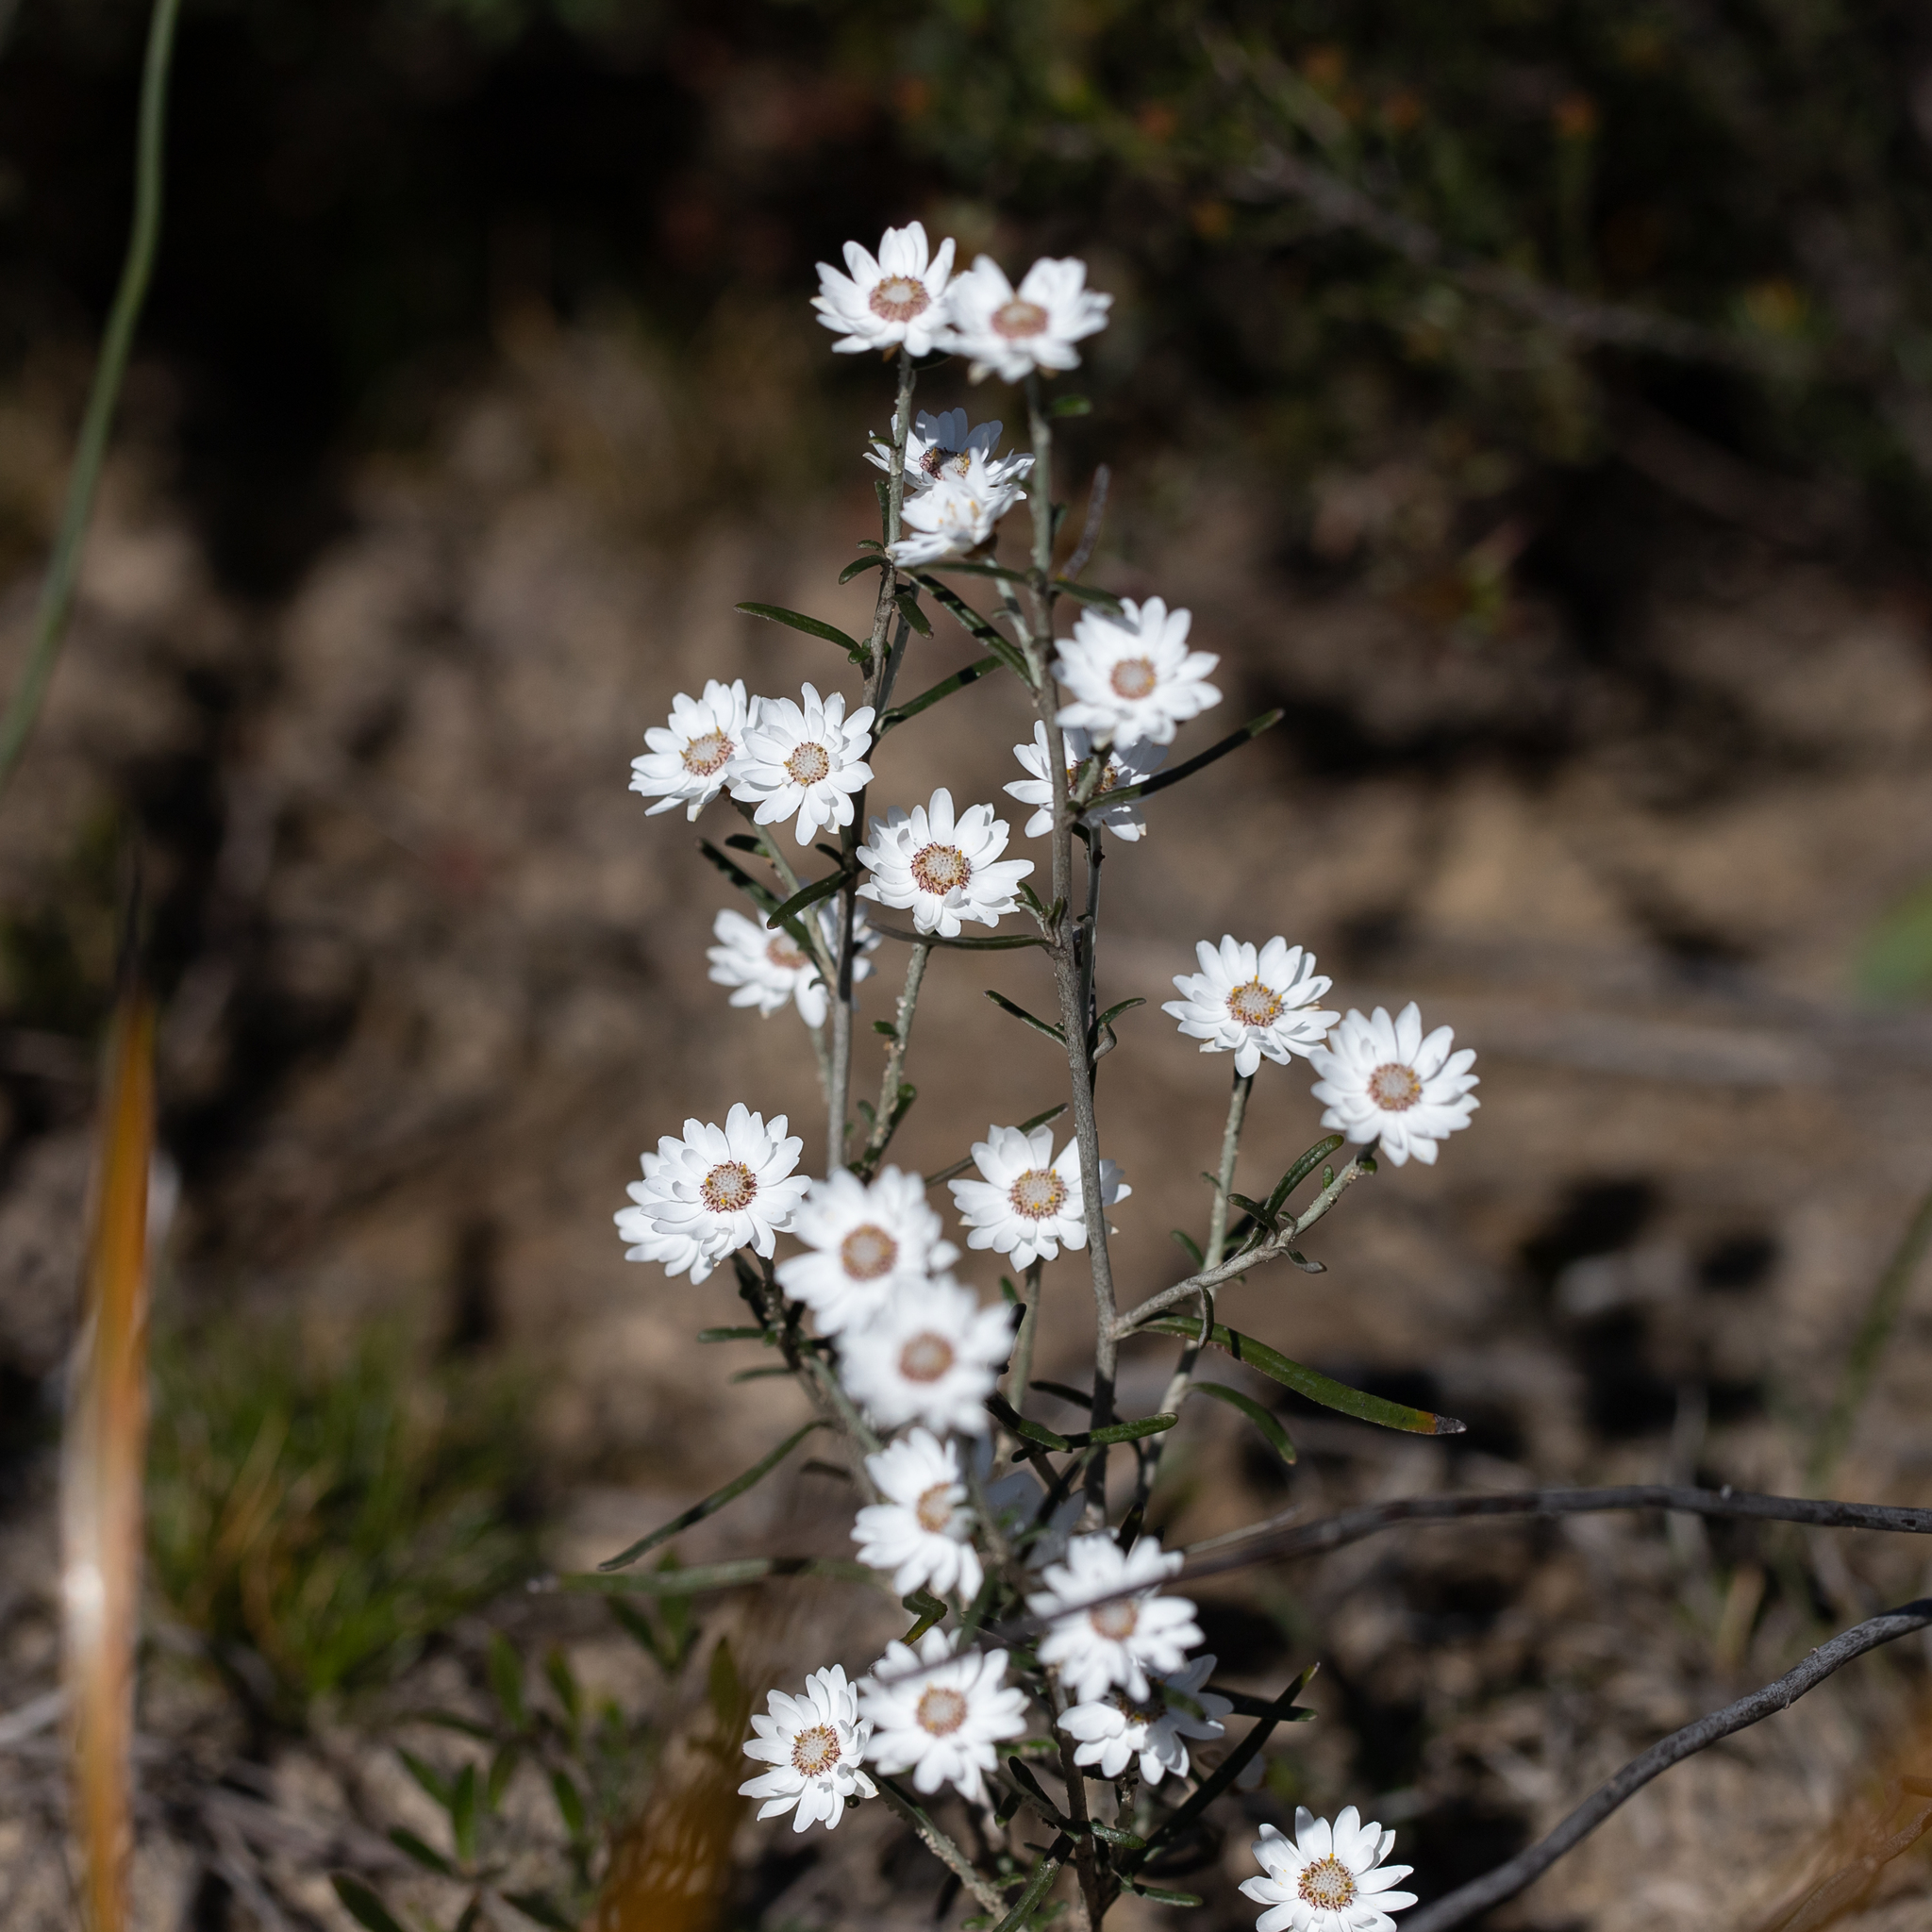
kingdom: Plantae
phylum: Tracheophyta
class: Magnoliopsida
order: Asterales
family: Asteraceae
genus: Argentipallium
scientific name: Argentipallium obtusifolium
